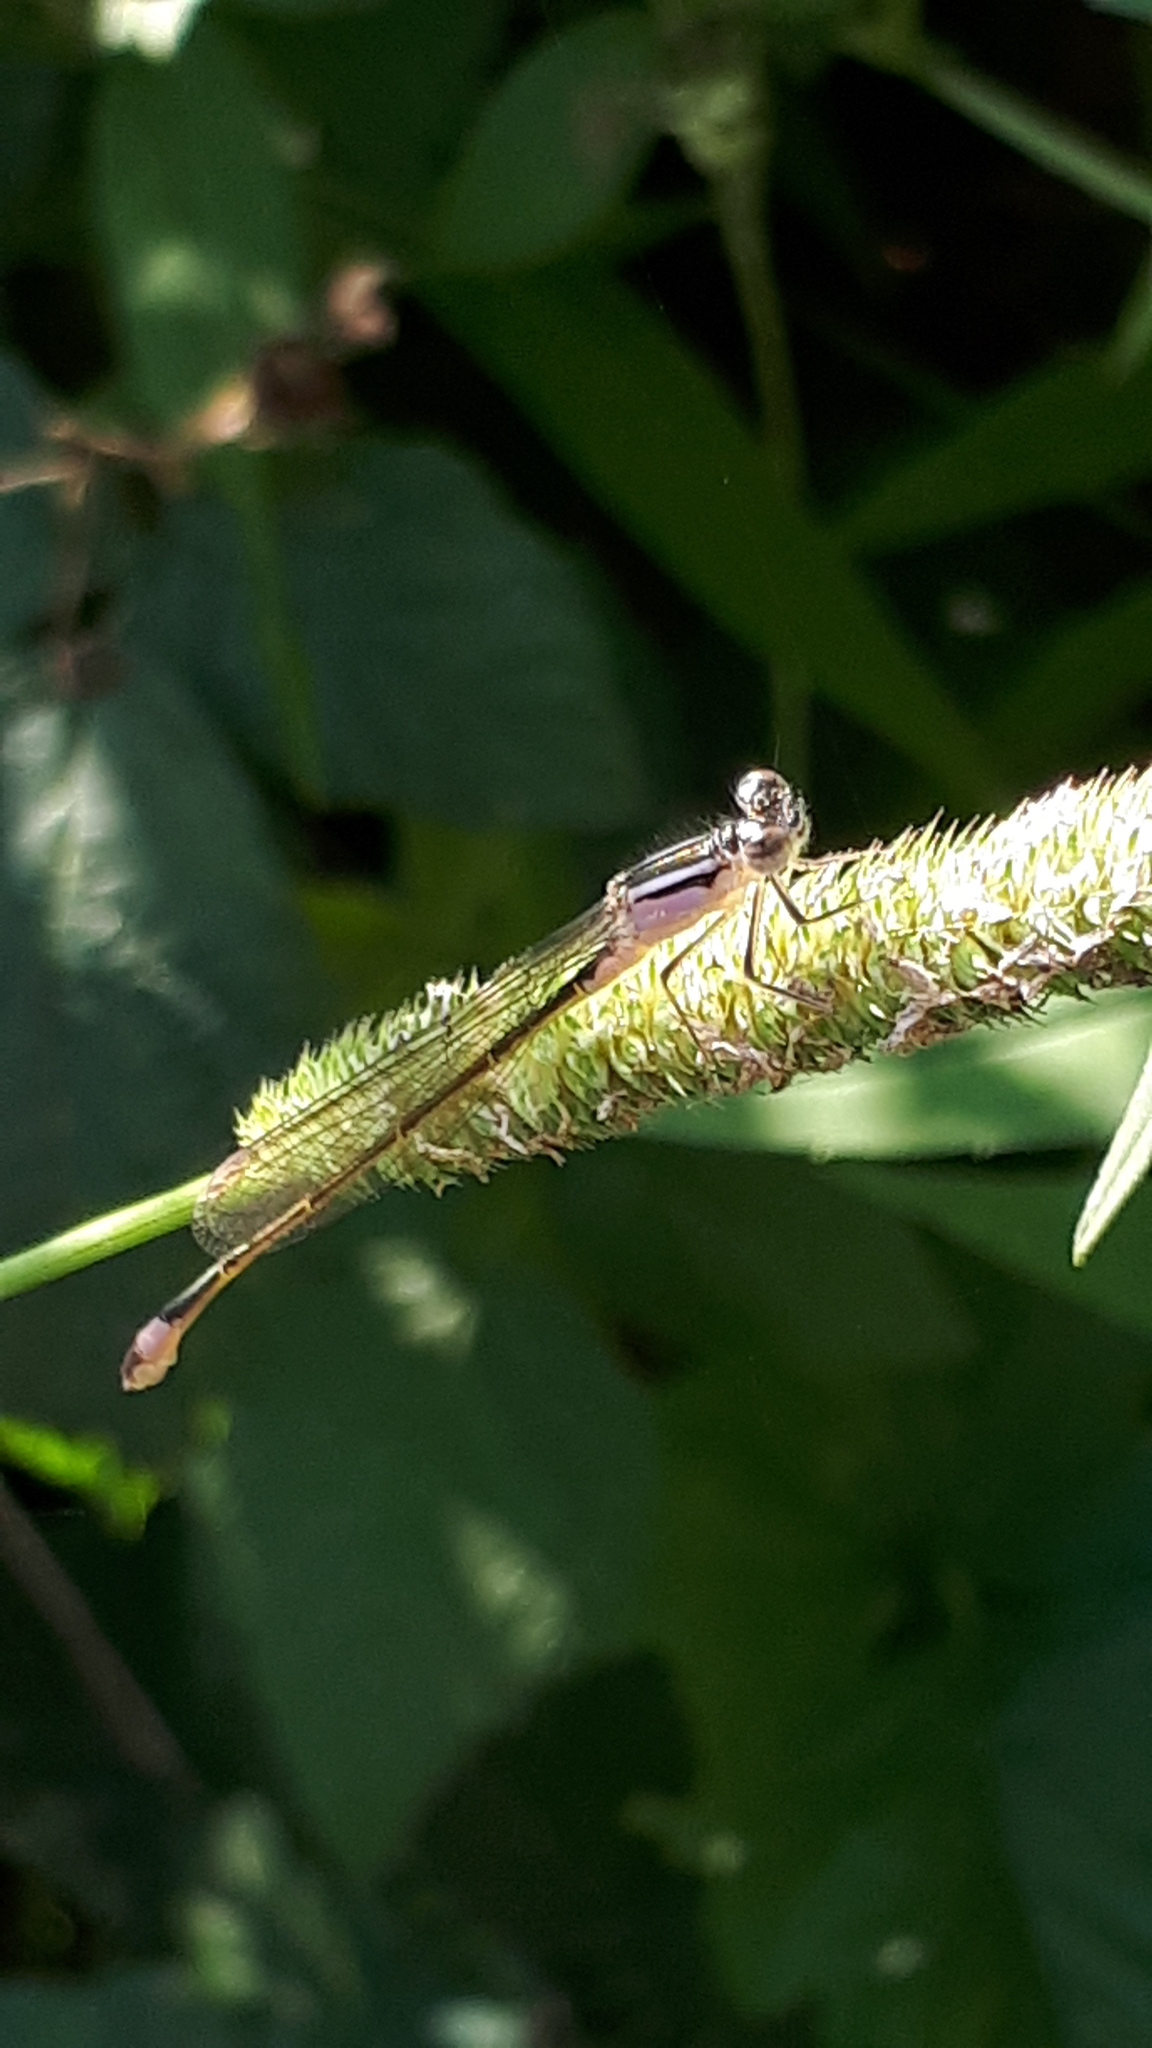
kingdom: Animalia
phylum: Arthropoda
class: Insecta
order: Odonata
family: Coenagrionidae
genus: Ischnura
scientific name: Ischnura elegans
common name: Blue-tailed damselfly
